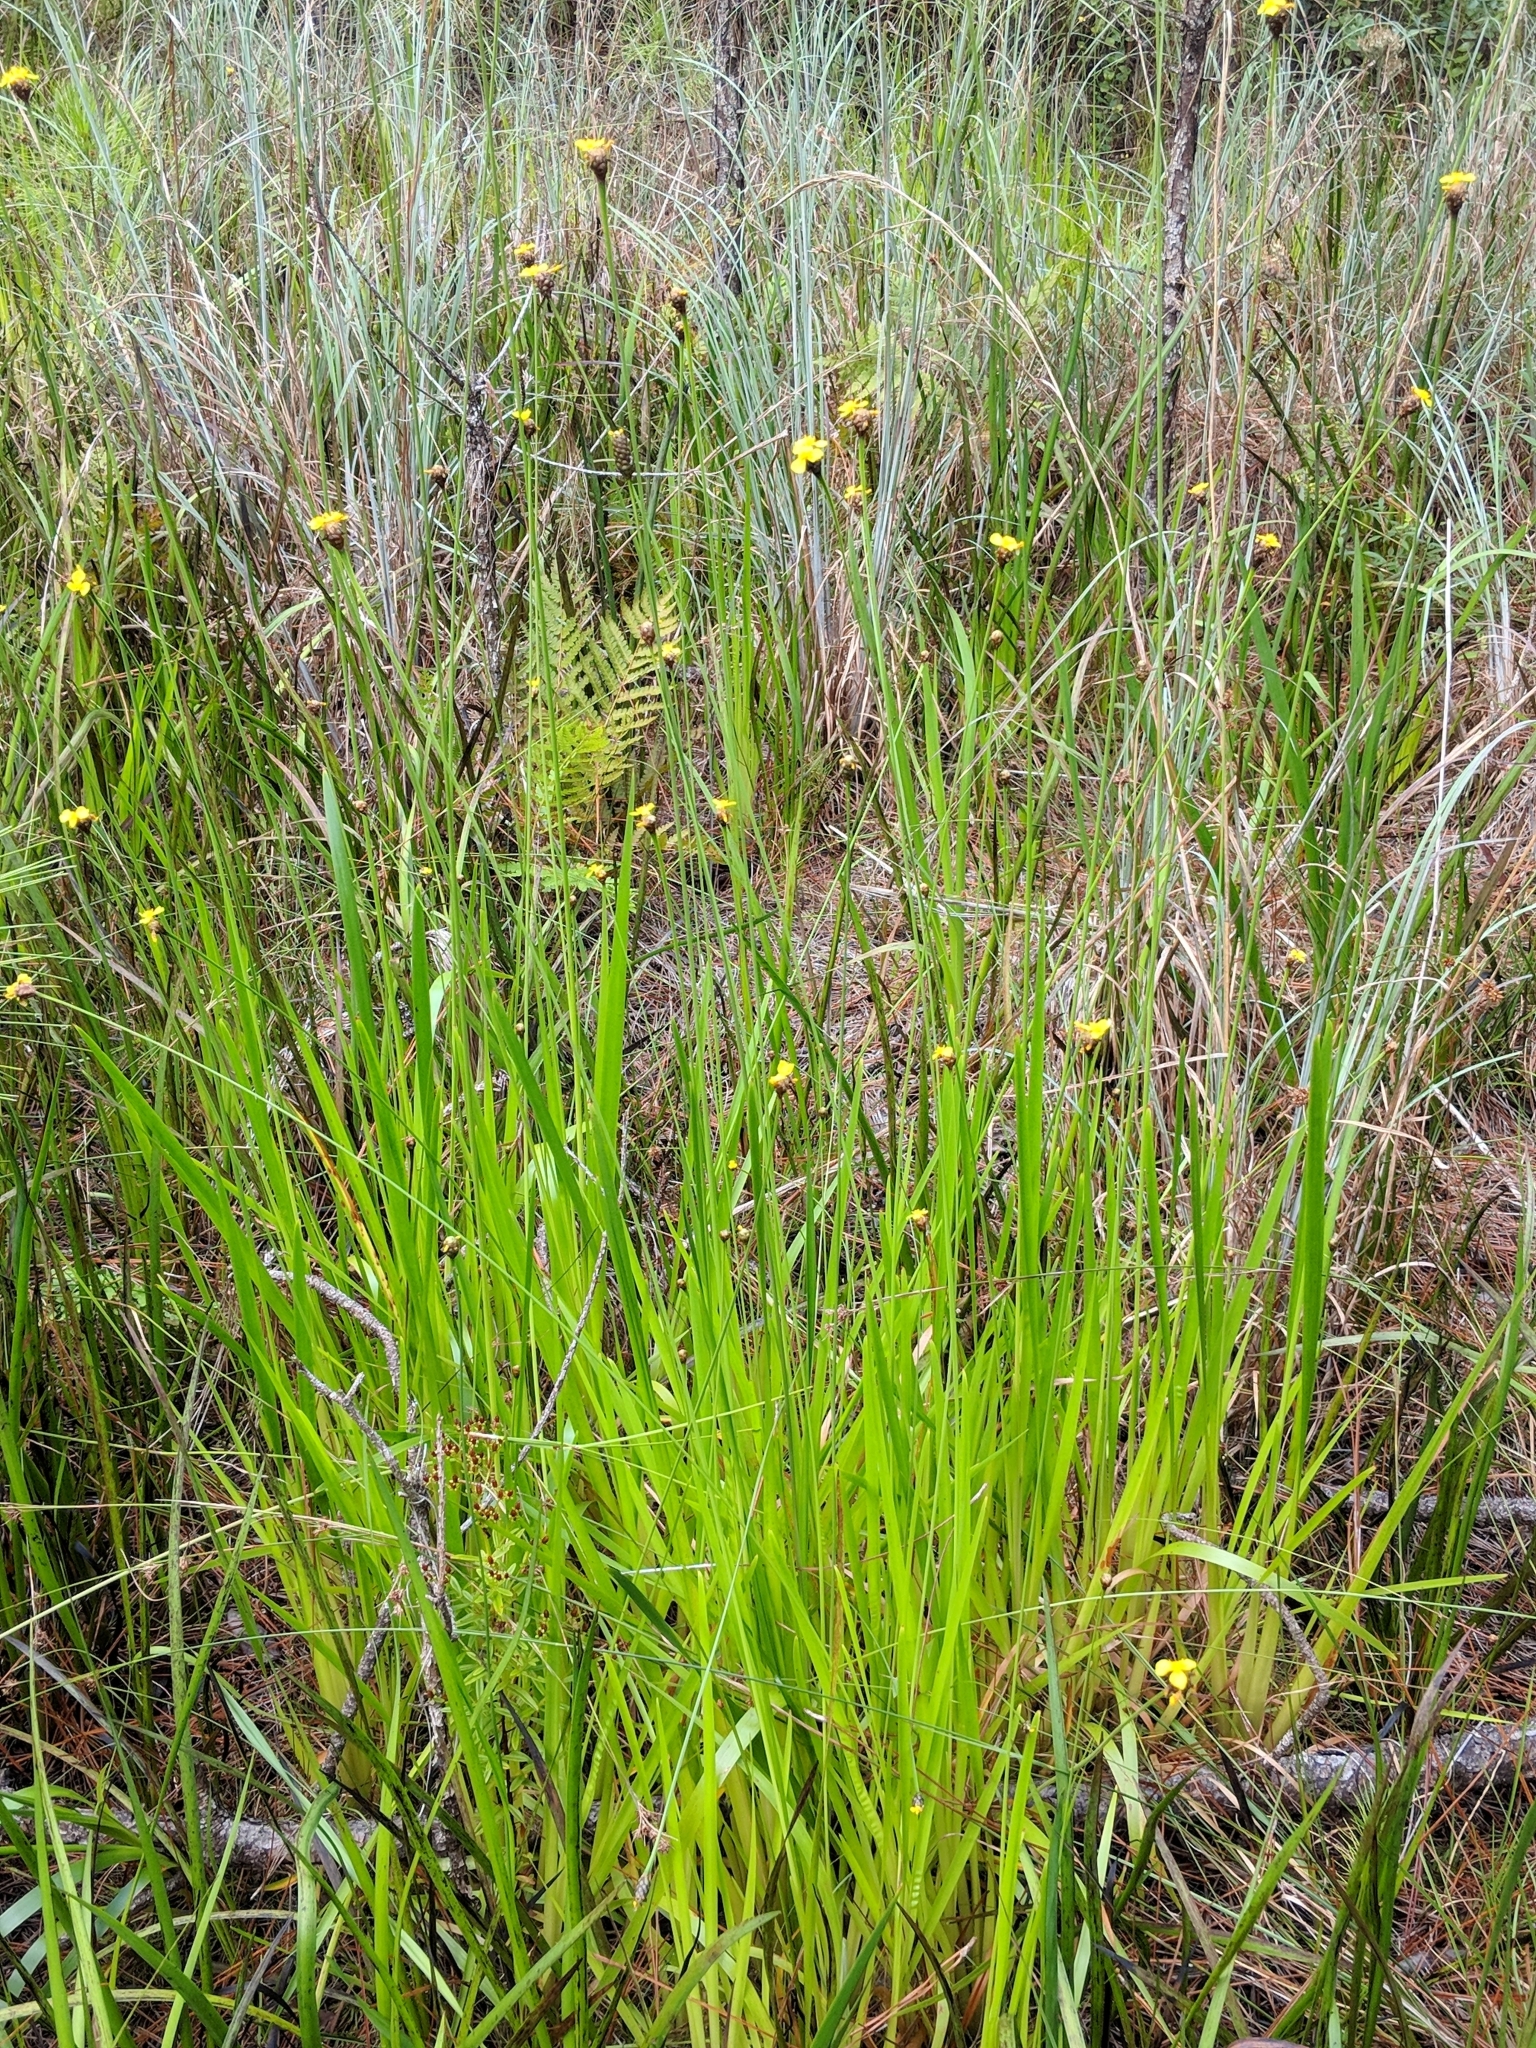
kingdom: Plantae
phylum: Tracheophyta
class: Liliopsida
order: Poales
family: Xyridaceae
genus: Xyris
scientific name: Xyris fimbriata
